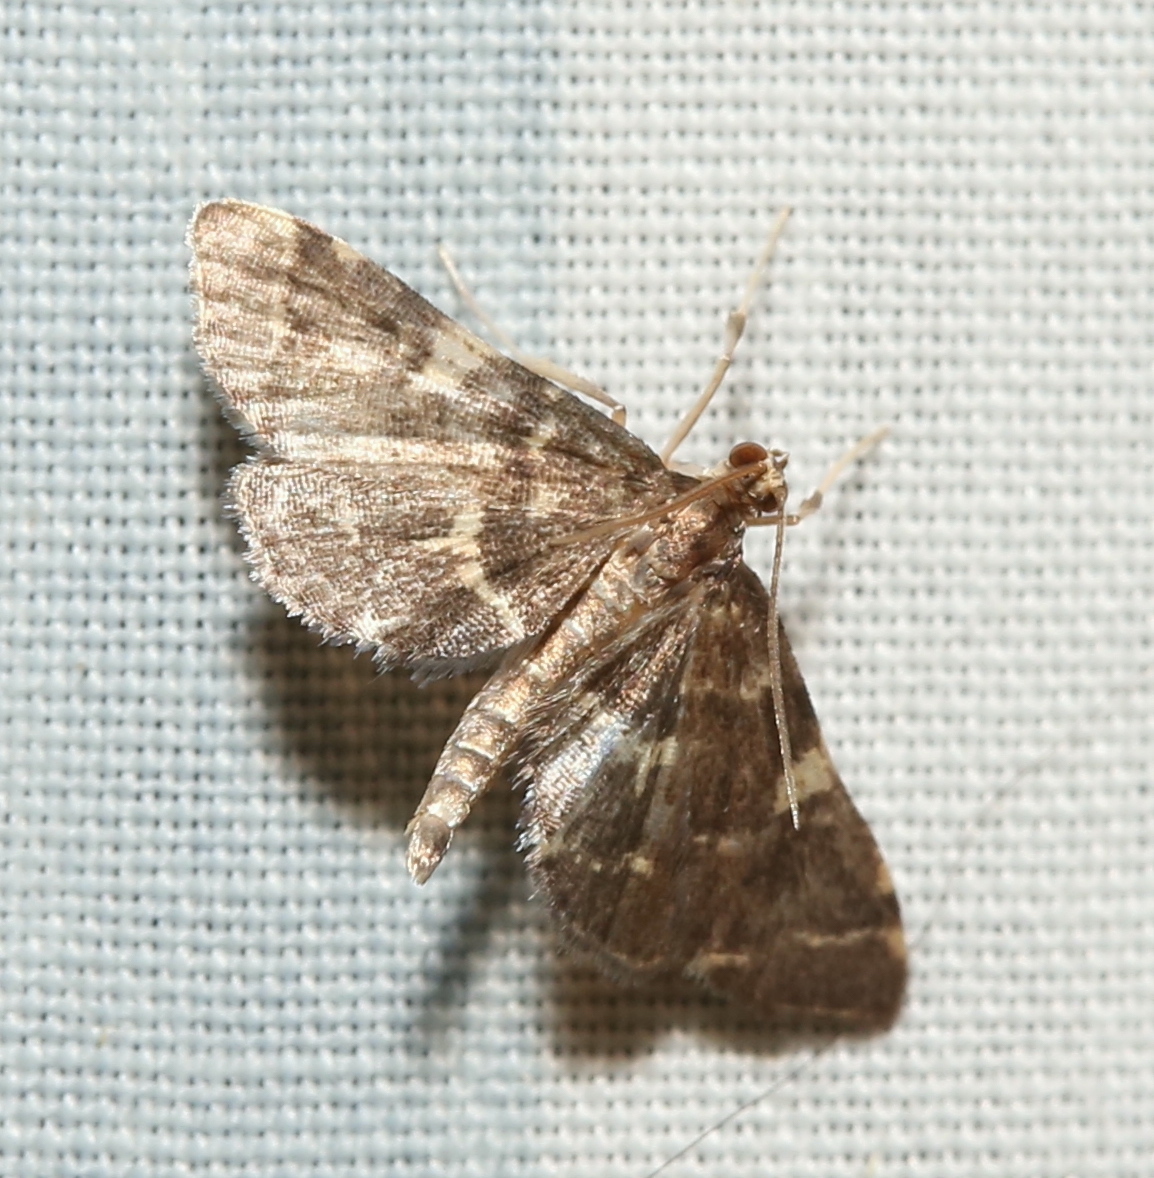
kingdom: Animalia
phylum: Arthropoda
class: Insecta
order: Lepidoptera
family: Crambidae
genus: Anageshna
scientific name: Anageshna primordialis
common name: Yellow-spotted webworm moth
